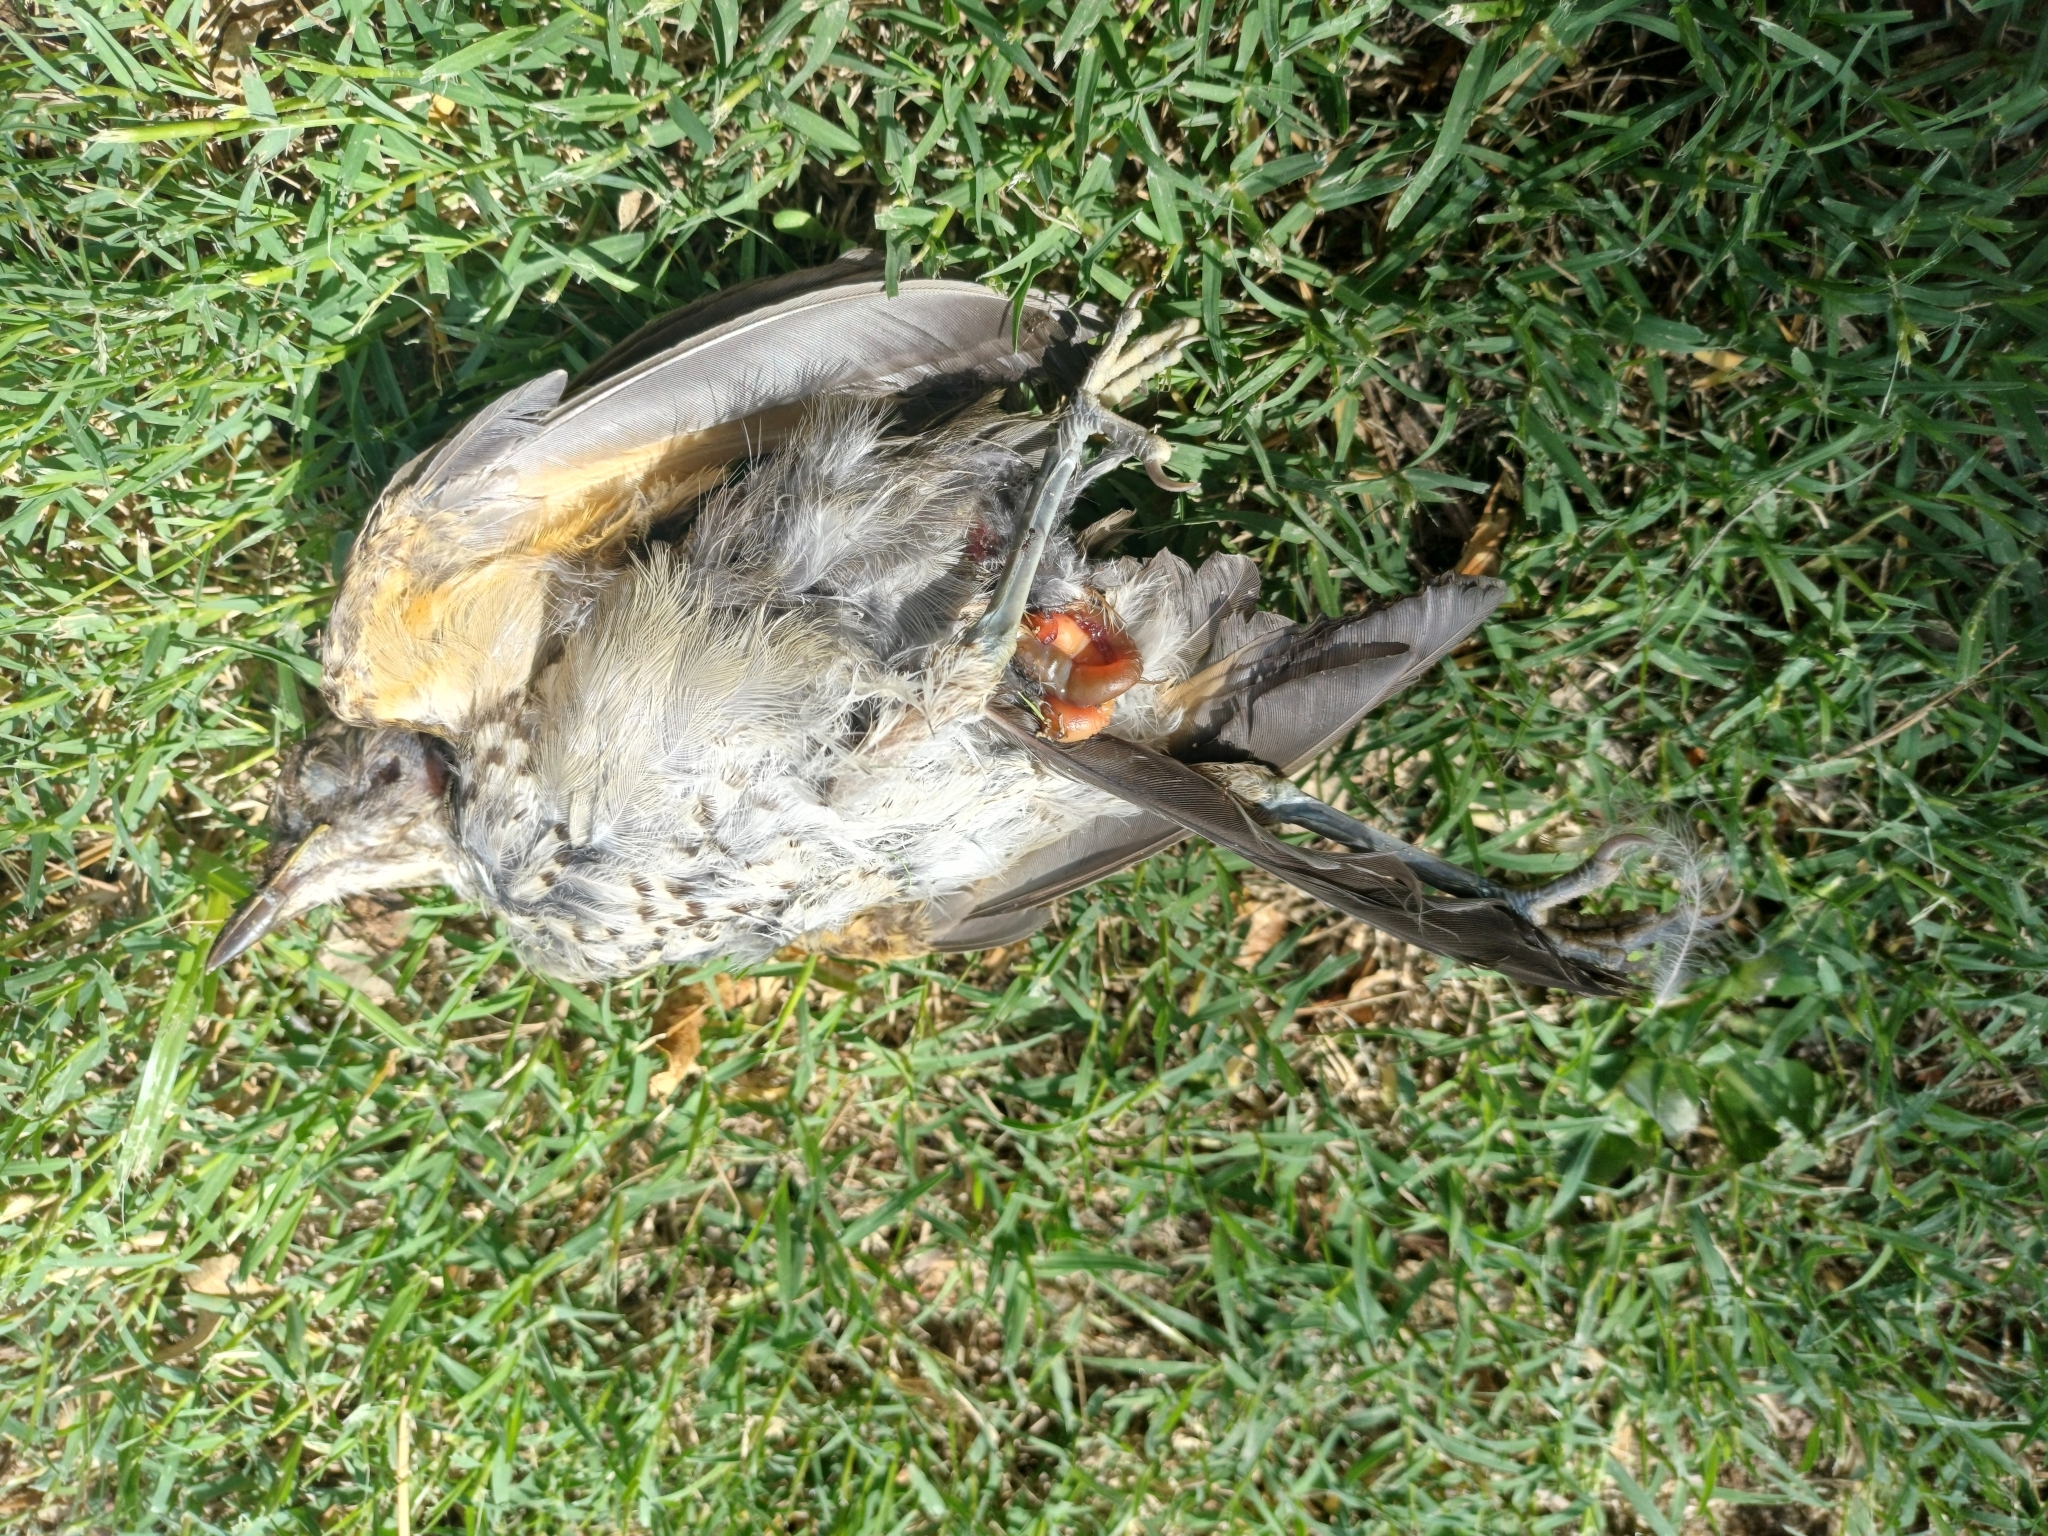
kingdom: Animalia
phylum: Chordata
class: Aves
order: Passeriformes
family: Turdidae
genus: Turdus
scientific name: Turdus rufiventris
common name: Rufous-bellied thrush
